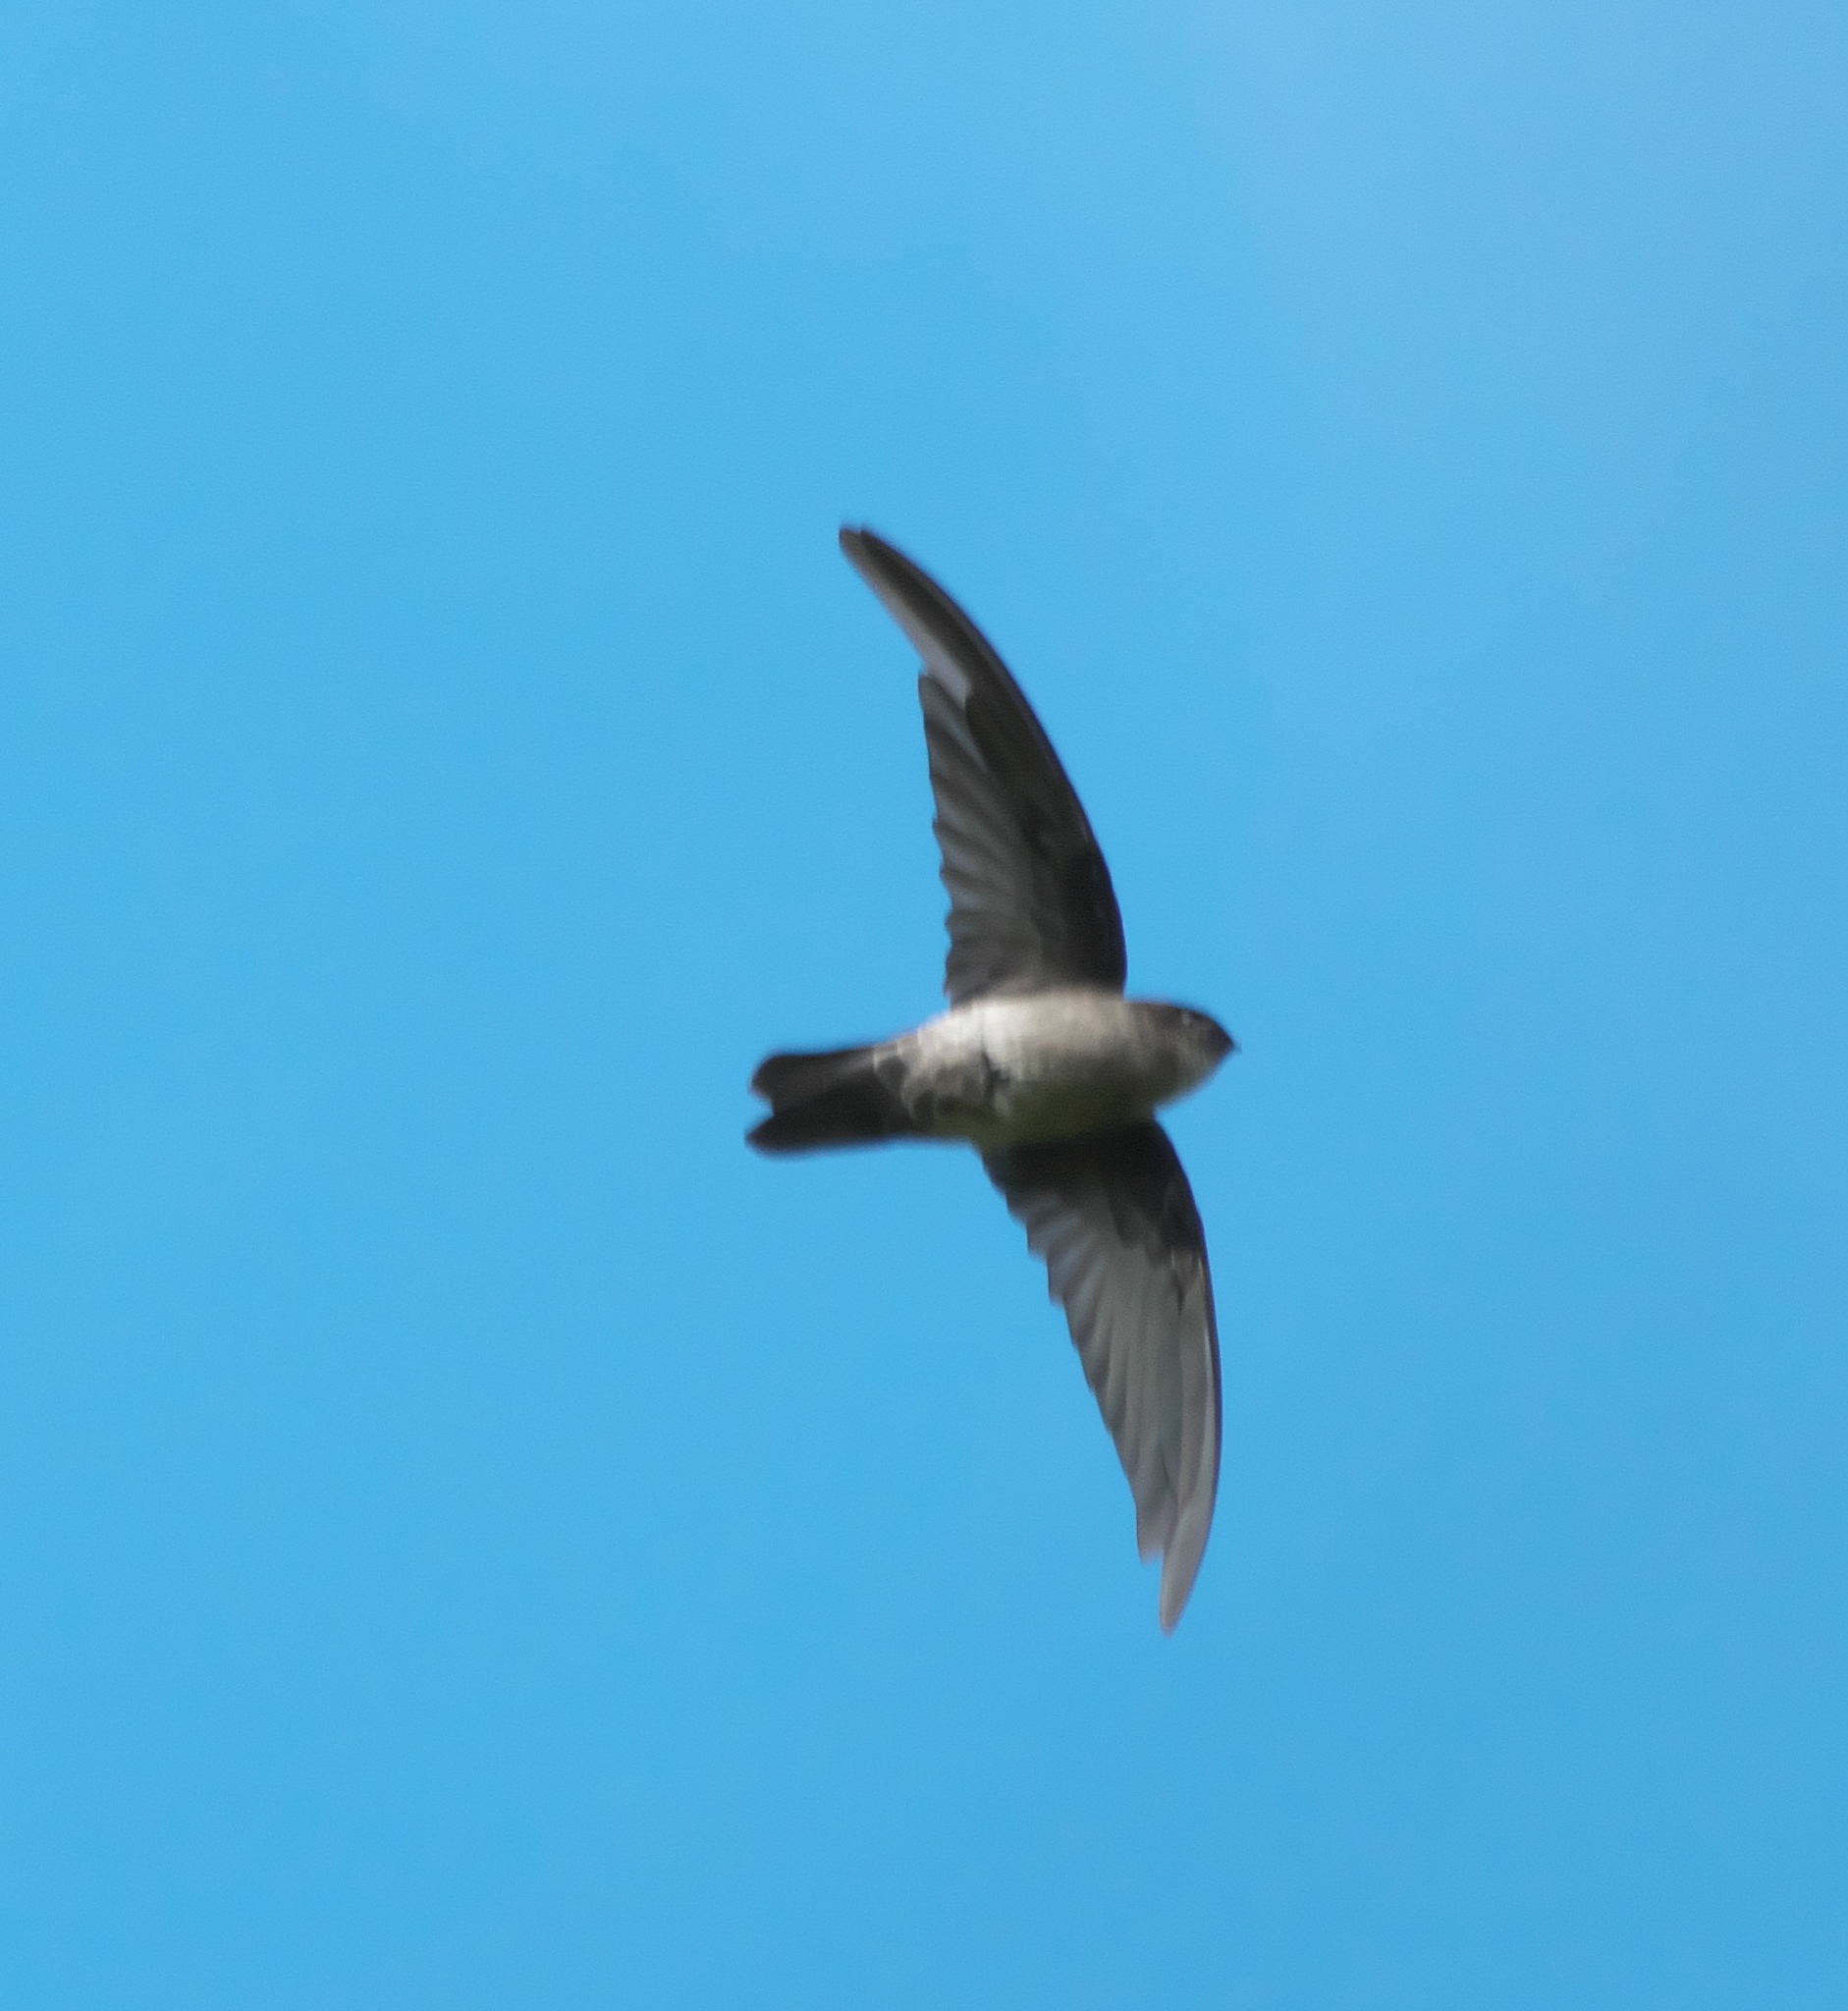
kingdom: Animalia
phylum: Chordata
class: Aves
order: Apodiformes
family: Apodidae
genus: Aerodramus
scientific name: Aerodramus spodiopygius
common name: White-rumped swiftlet
